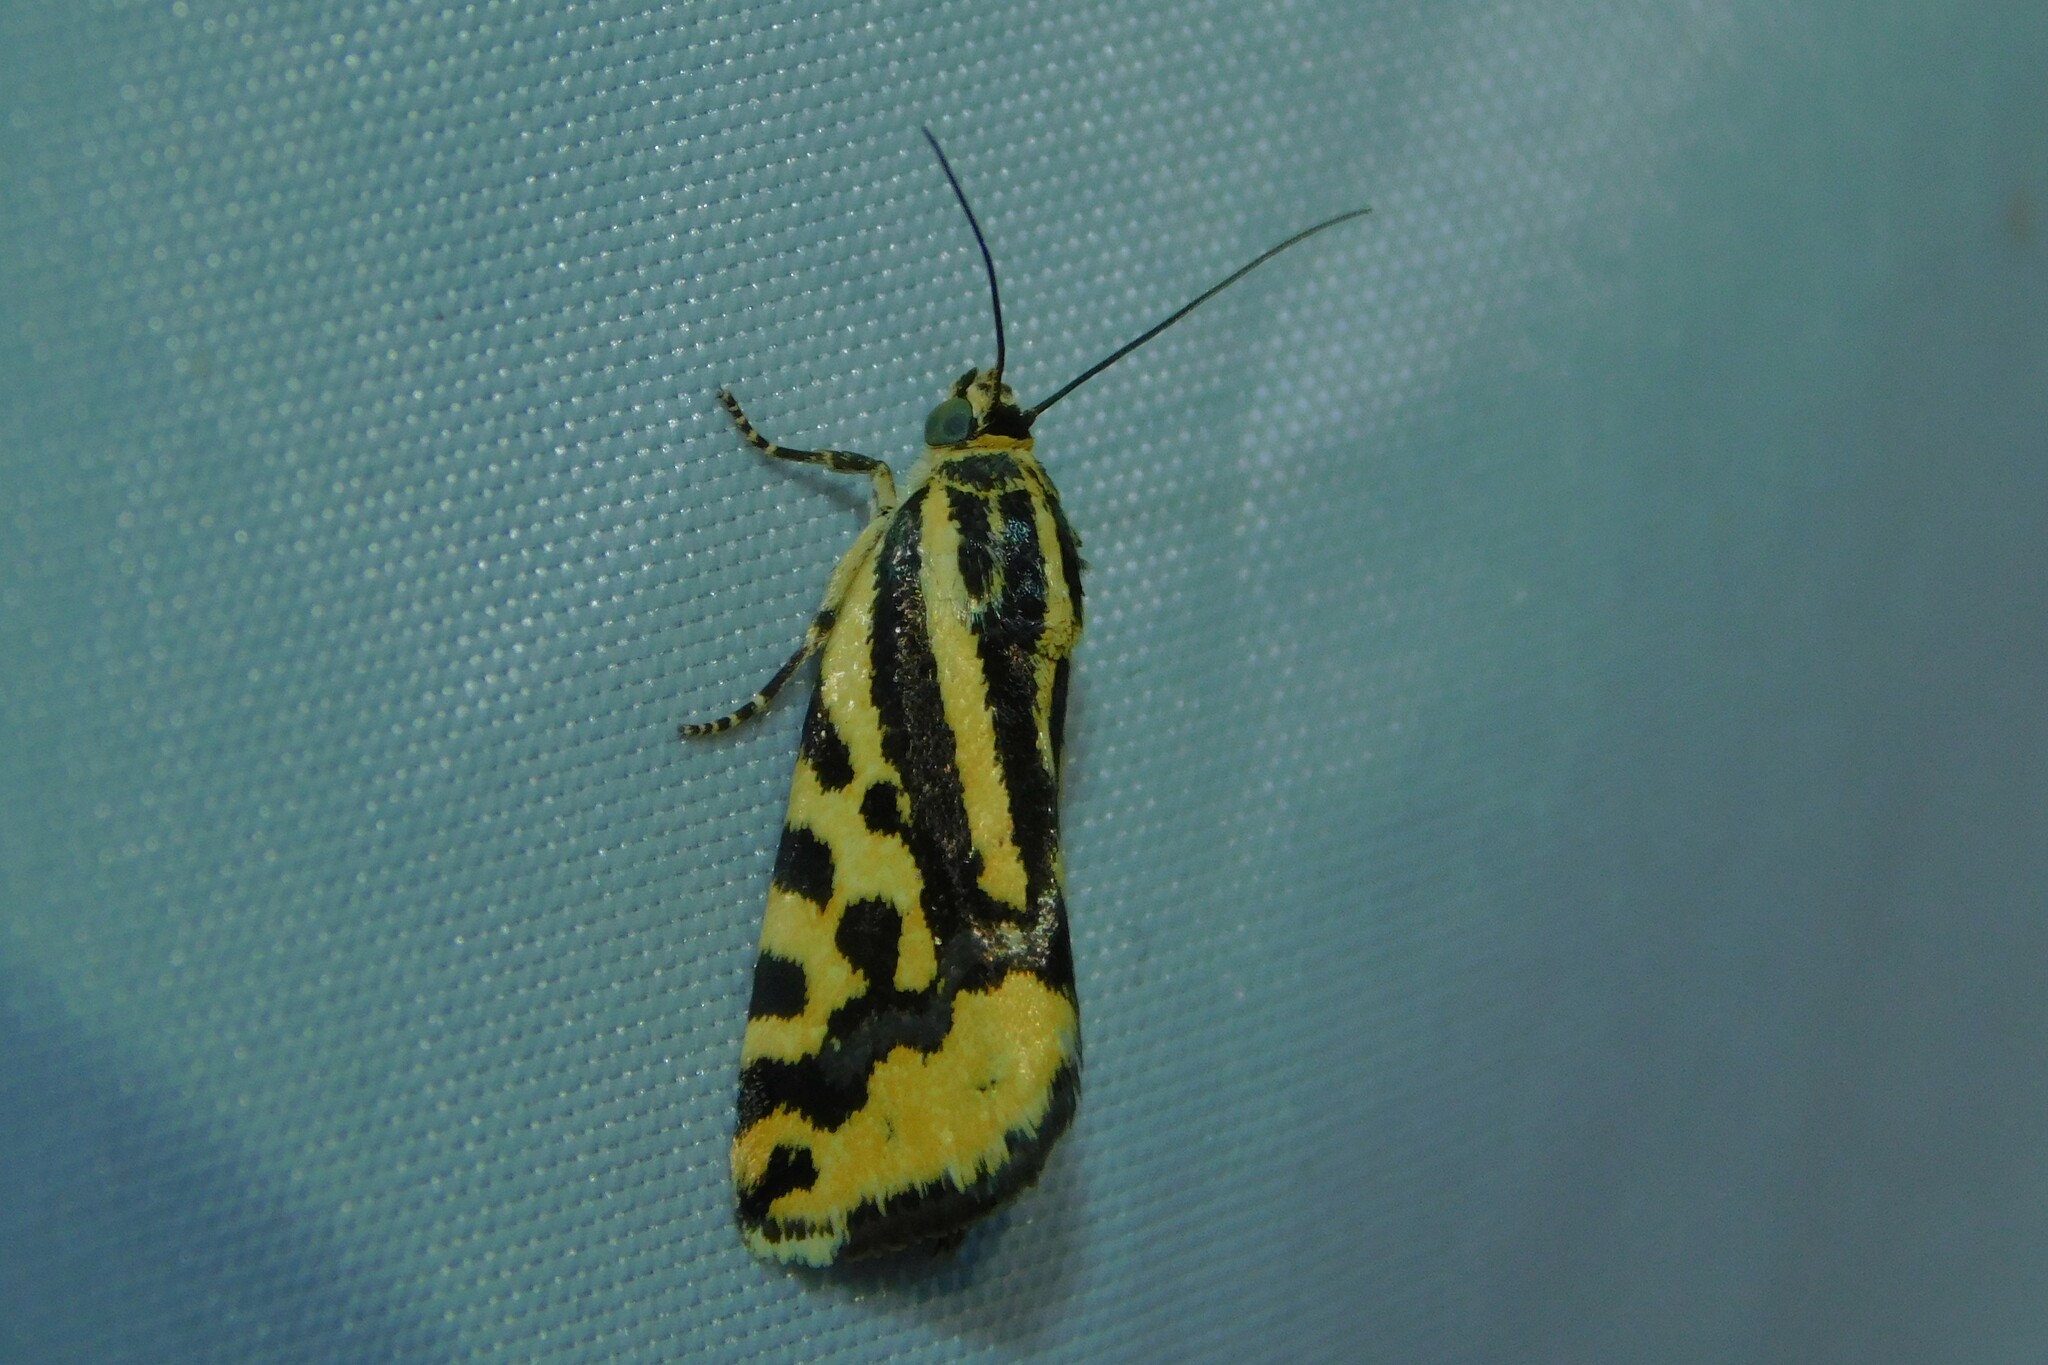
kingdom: Animalia
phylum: Arthropoda
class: Insecta
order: Lepidoptera
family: Noctuidae
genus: Acontia
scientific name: Acontia trabealis
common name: Spotted sulphur
